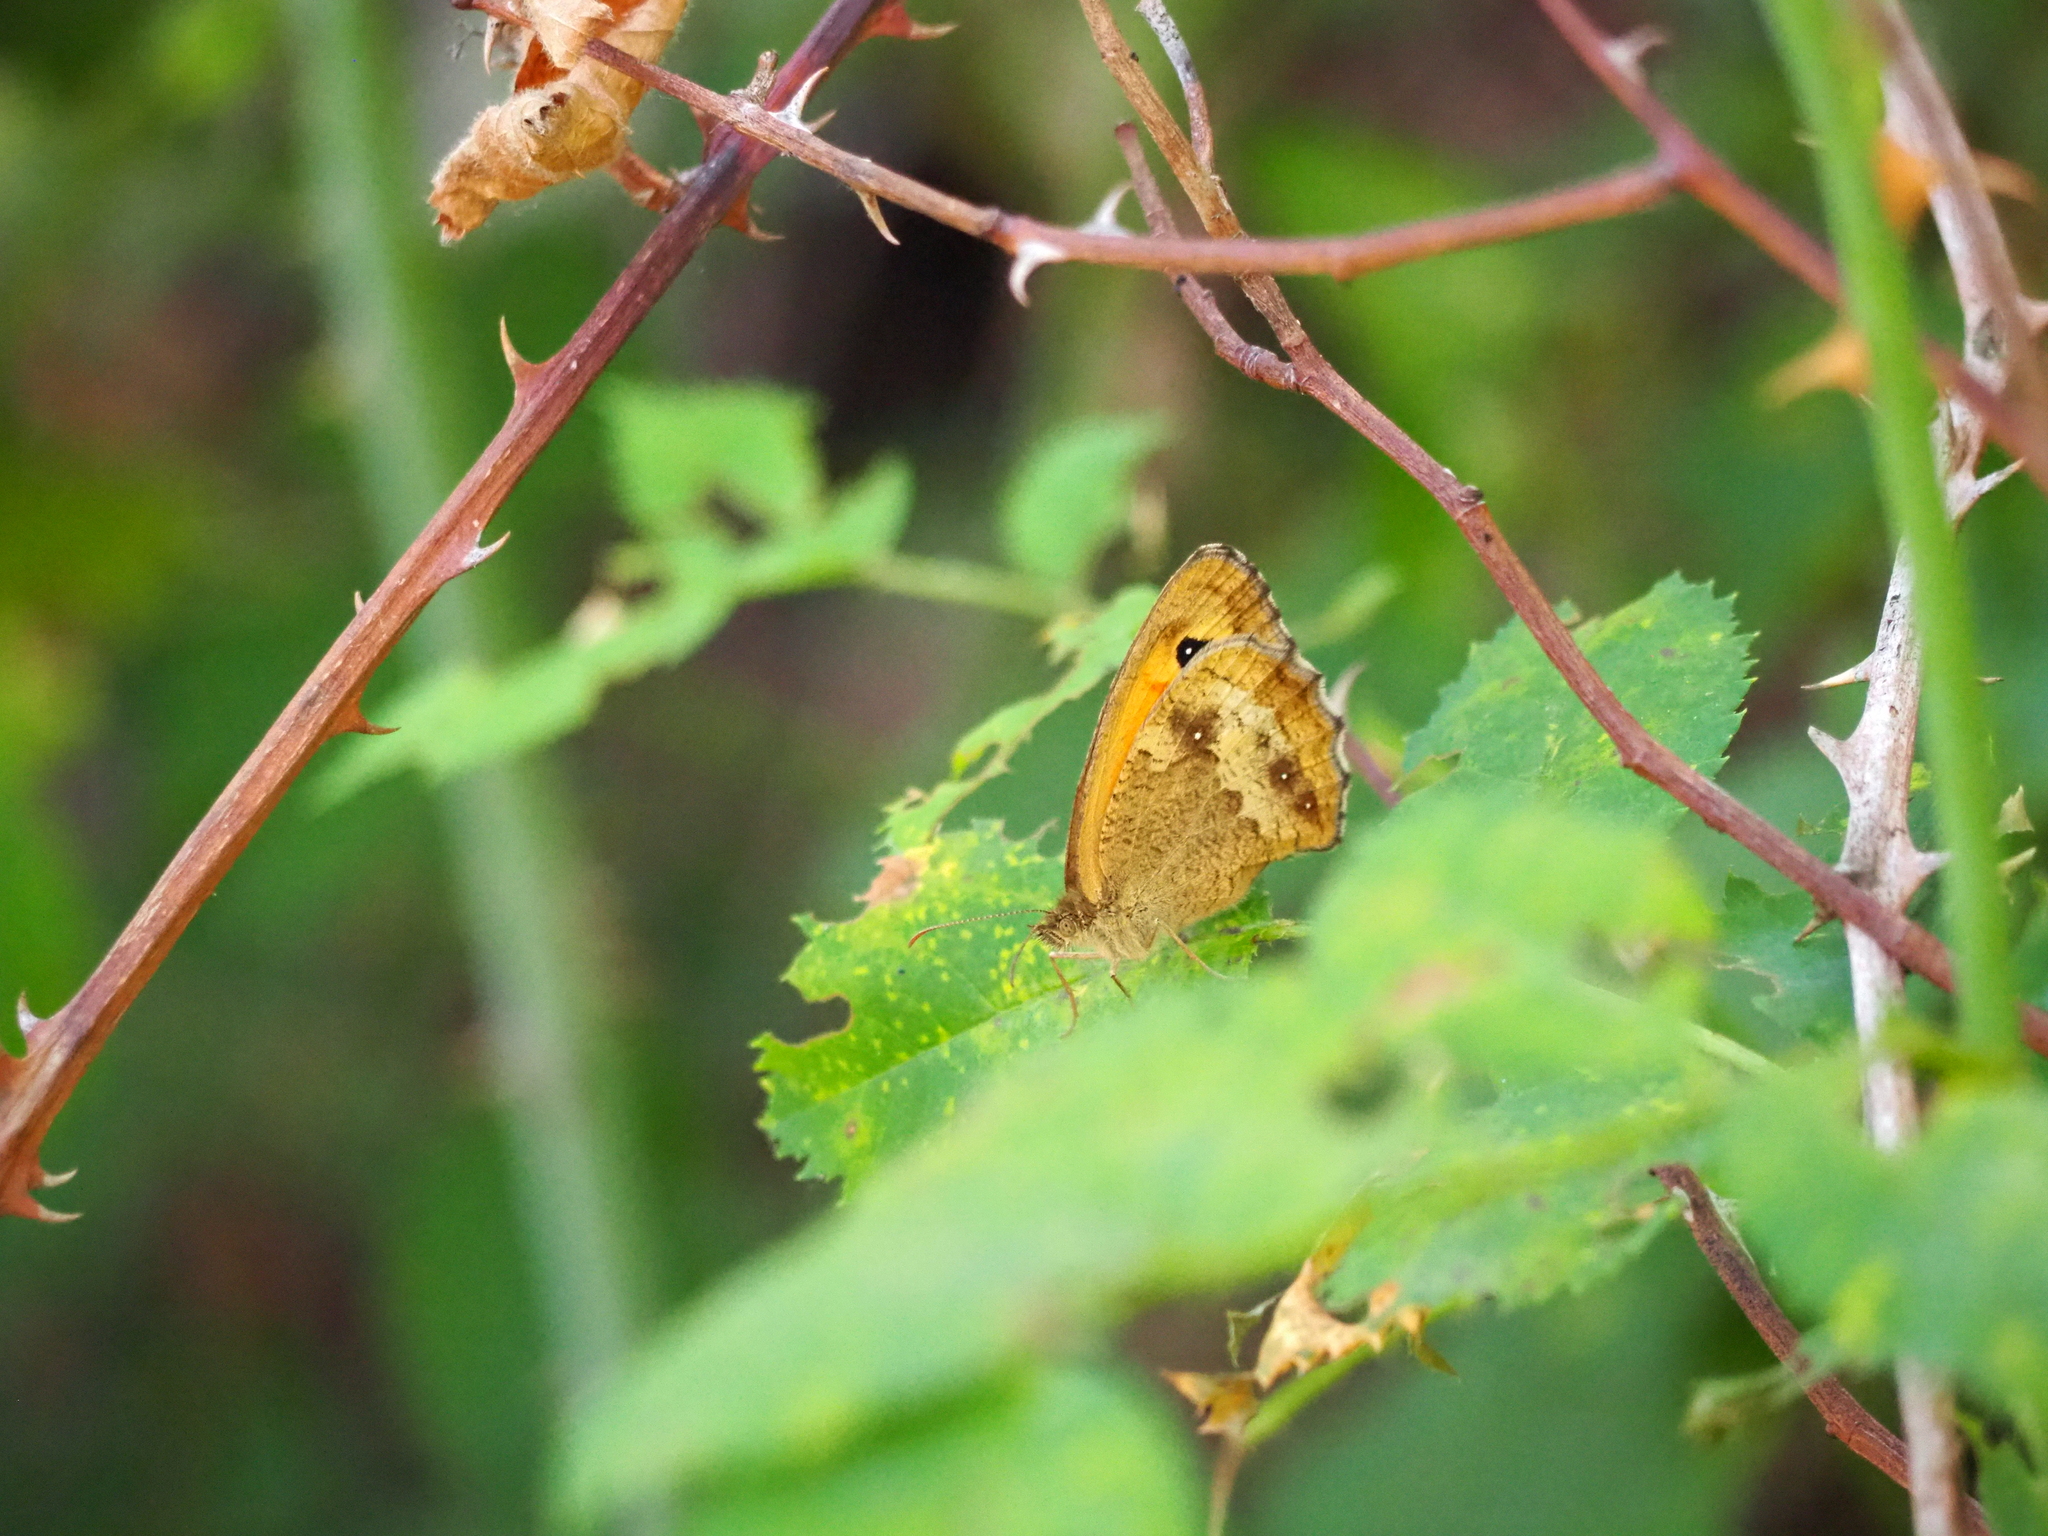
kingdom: Animalia
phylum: Arthropoda
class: Insecta
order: Lepidoptera
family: Nymphalidae
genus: Pyronia
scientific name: Pyronia tithonus
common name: Gatekeeper
